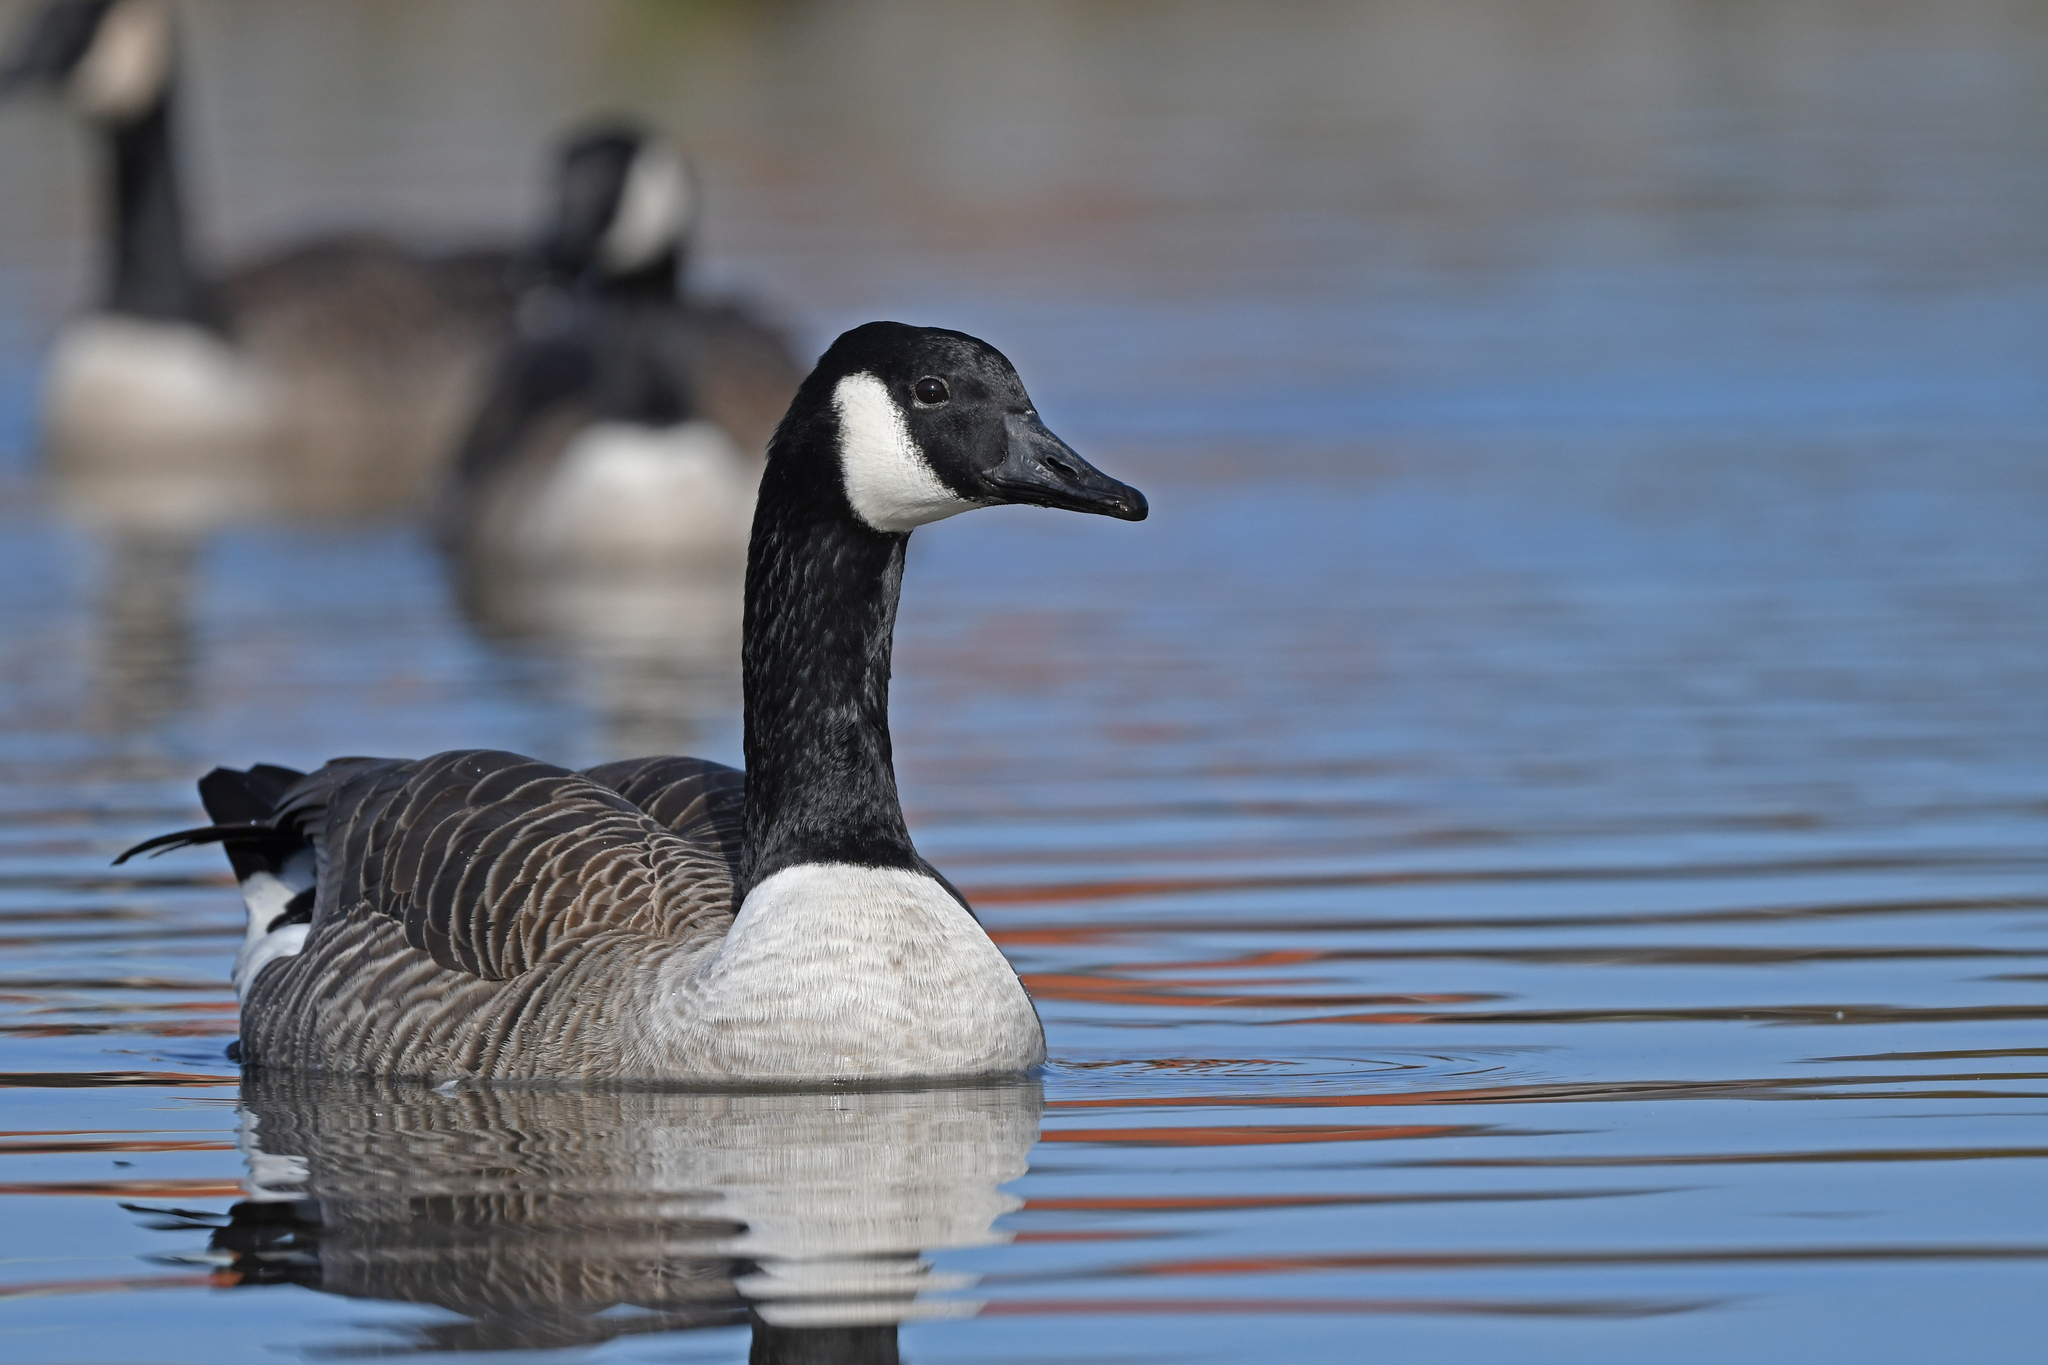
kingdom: Animalia
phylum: Chordata
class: Aves
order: Anseriformes
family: Anatidae
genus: Branta
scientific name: Branta canadensis
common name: Canada goose
